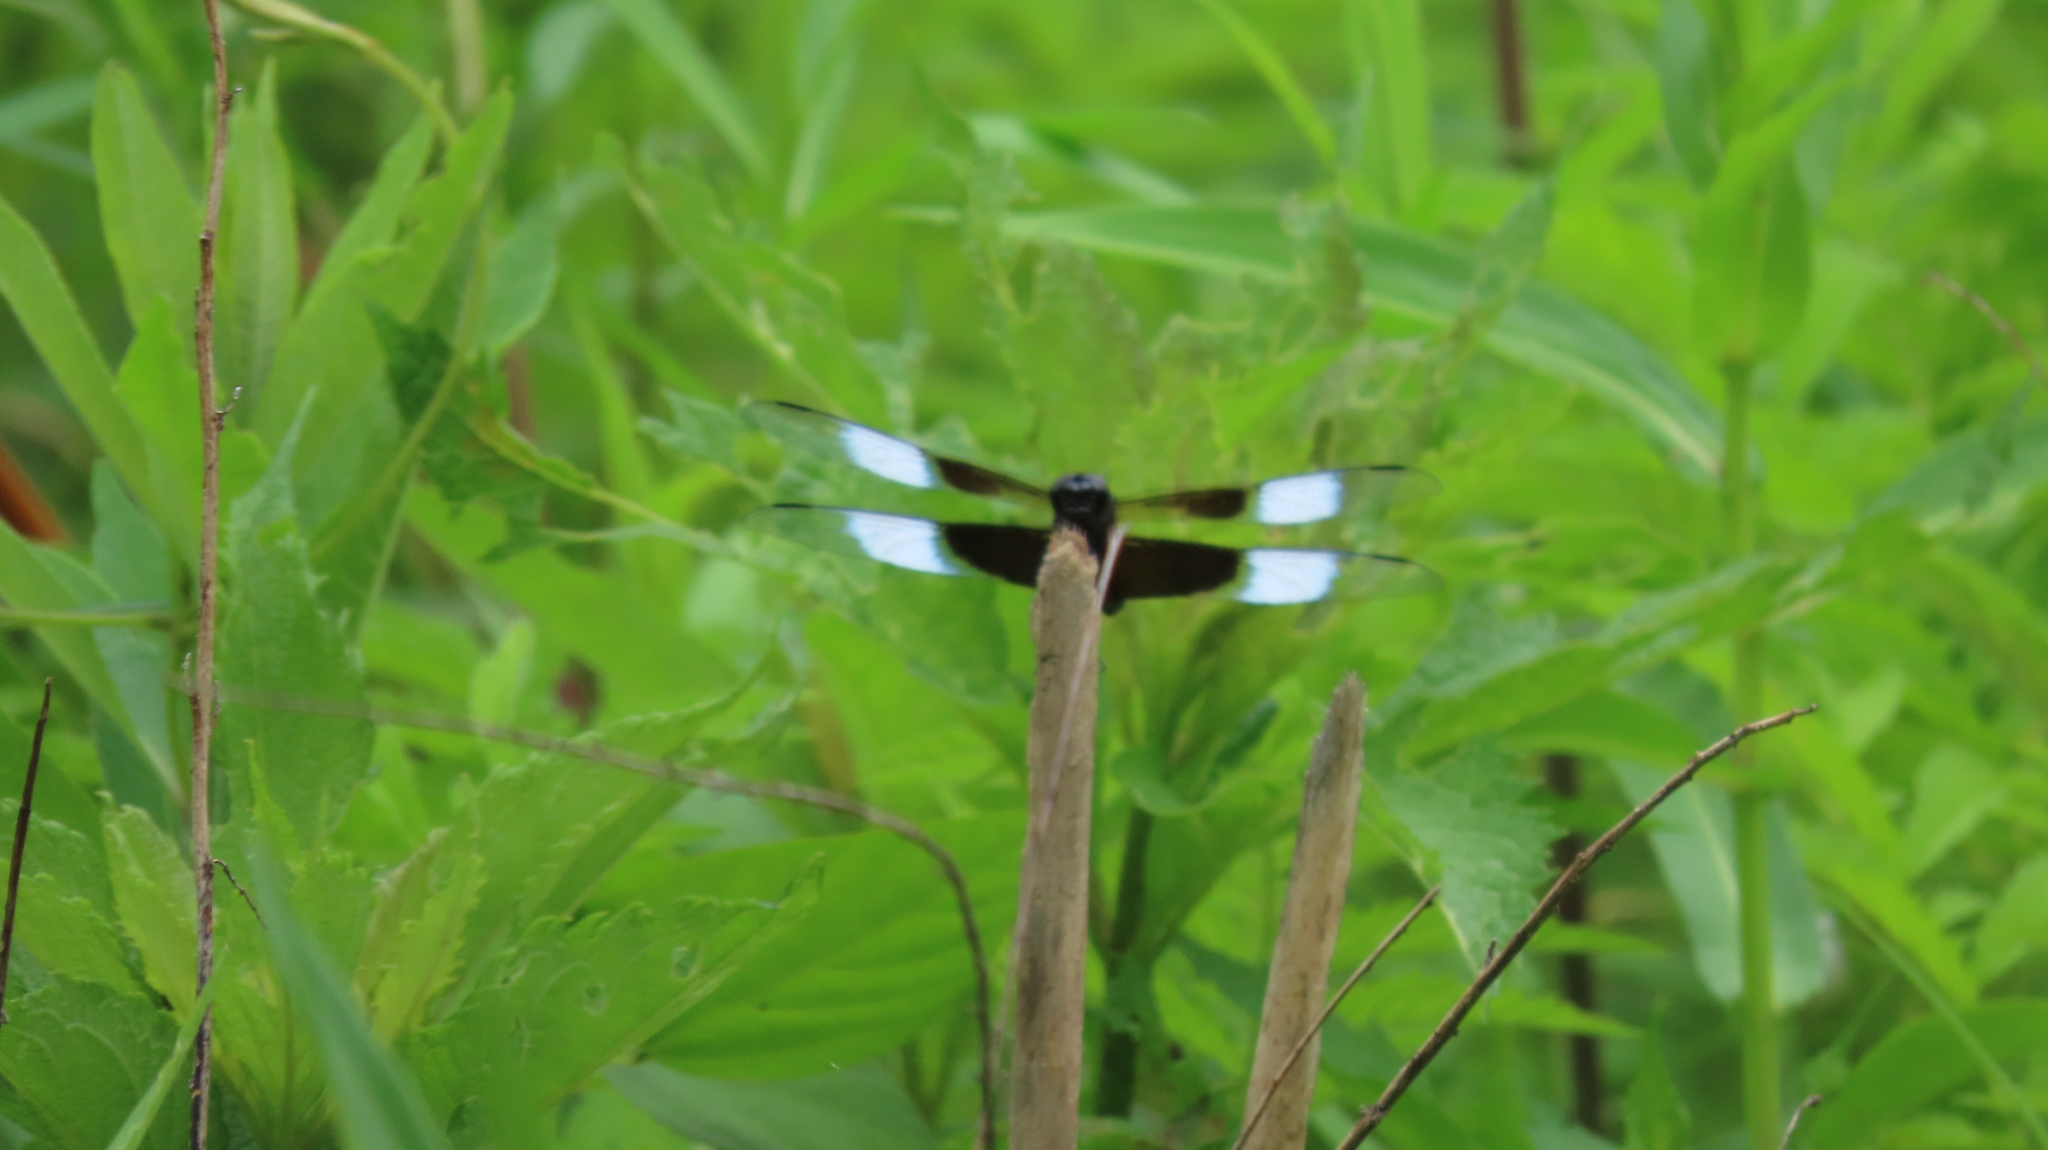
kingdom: Animalia
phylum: Arthropoda
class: Insecta
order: Odonata
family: Libellulidae
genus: Libellula
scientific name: Libellula luctuosa
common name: Widow skimmer
